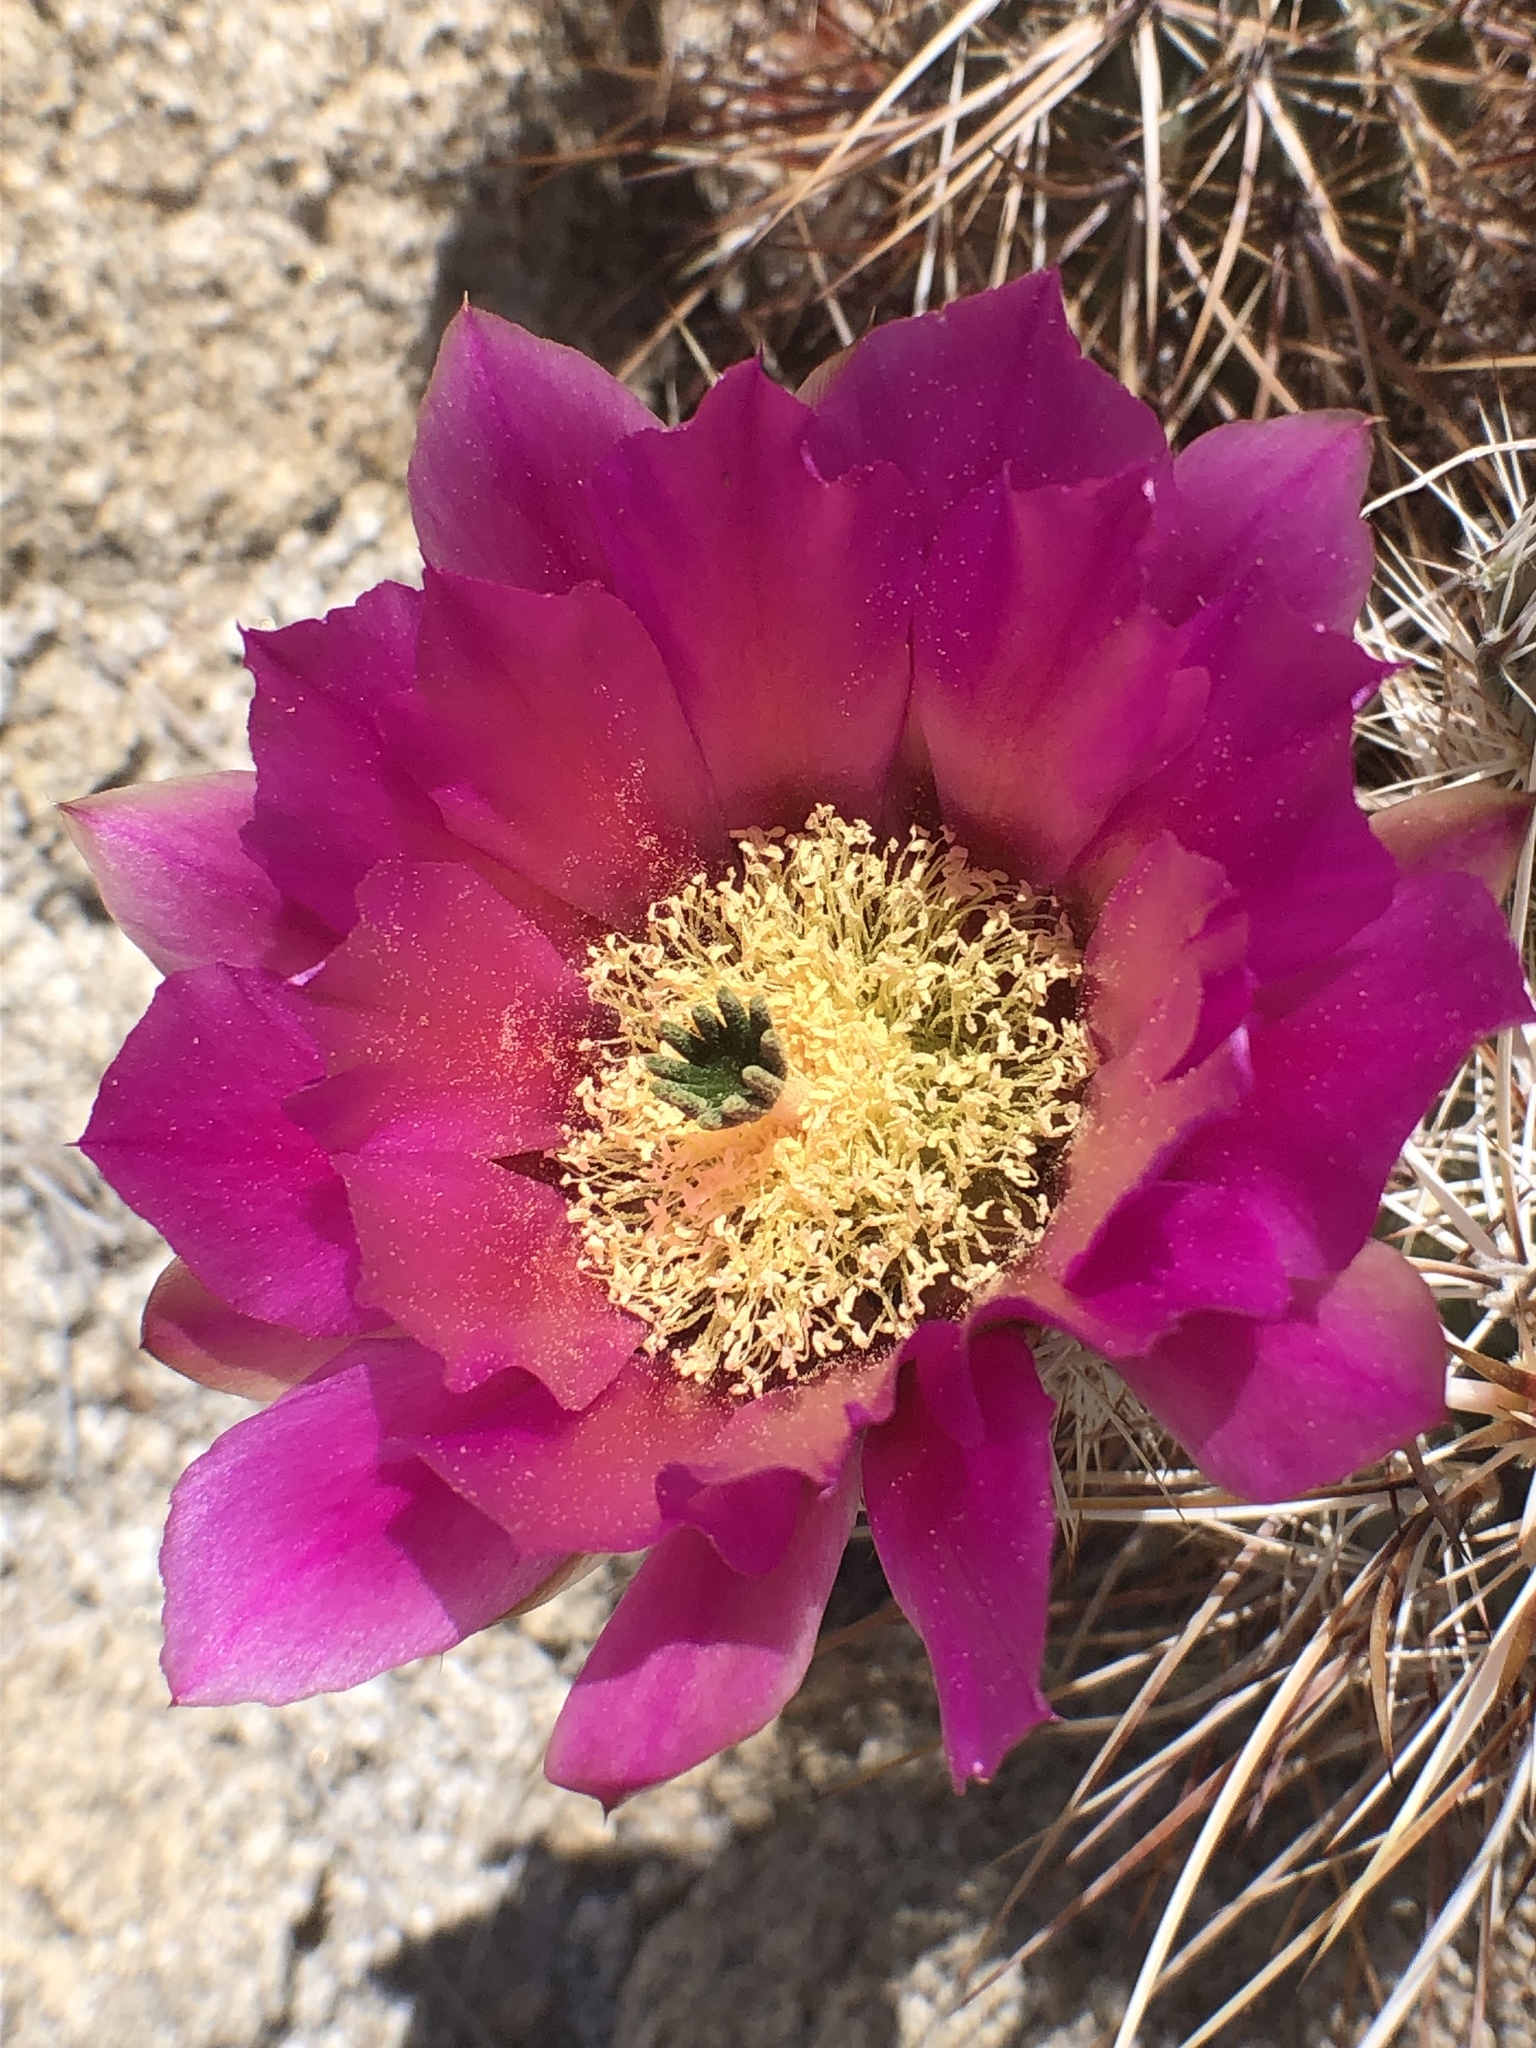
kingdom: Plantae
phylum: Tracheophyta
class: Magnoliopsida
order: Caryophyllales
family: Cactaceae
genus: Echinocereus
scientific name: Echinocereus engelmannii
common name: Engelmann's hedgehog cactus
